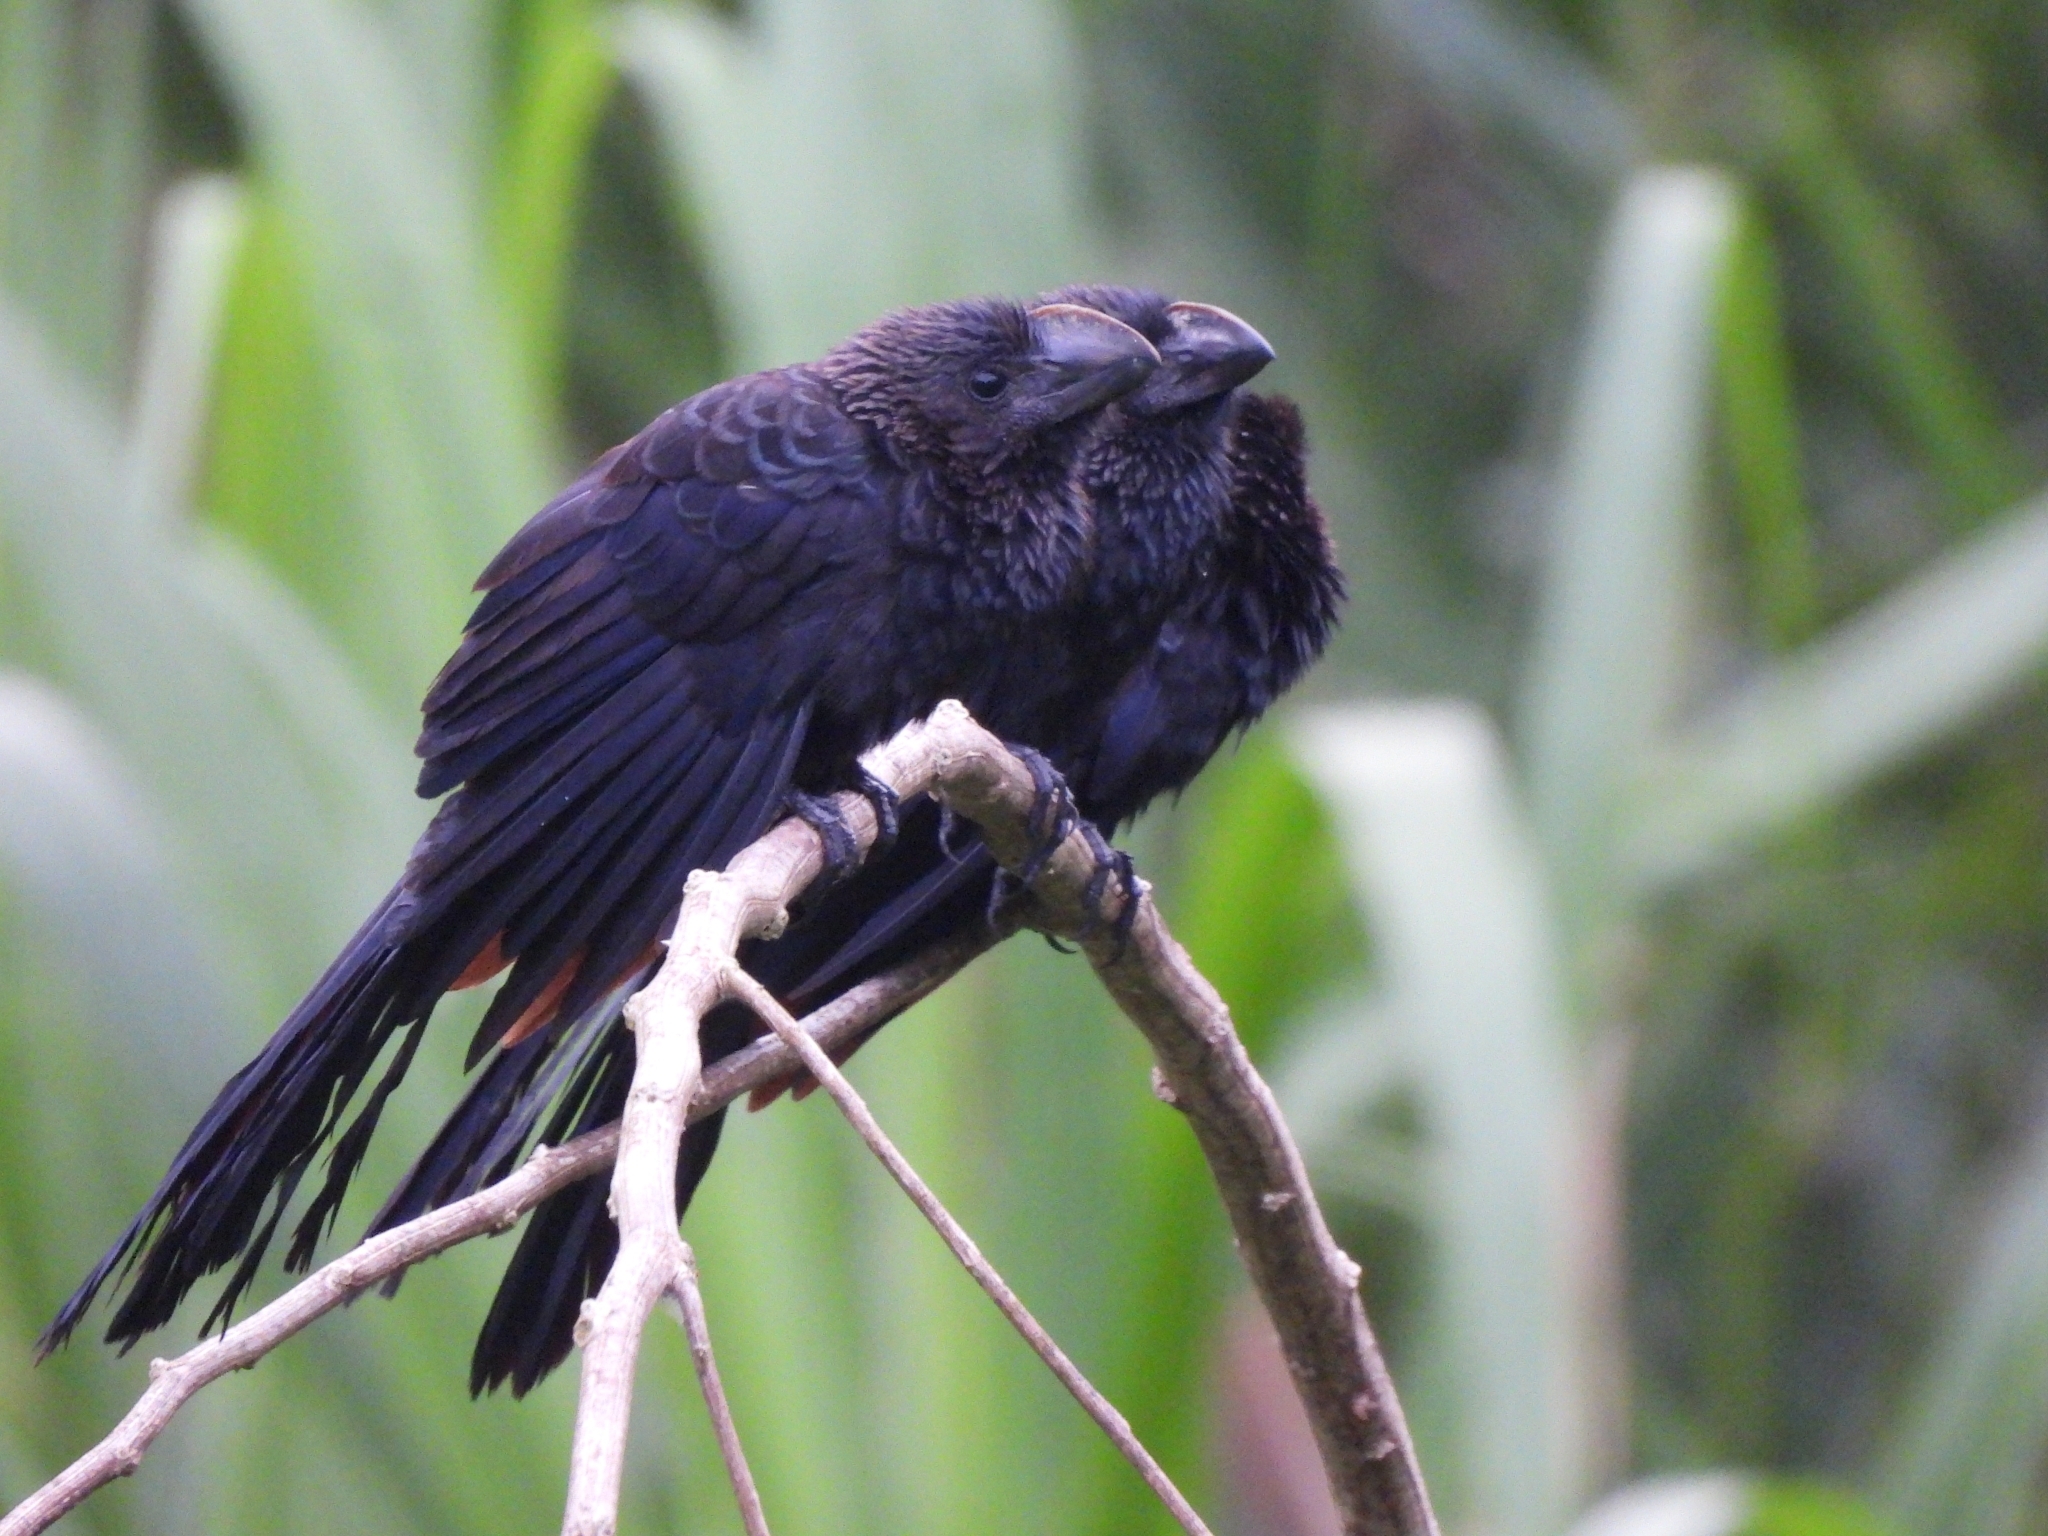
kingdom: Animalia
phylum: Chordata
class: Aves
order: Cuculiformes
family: Cuculidae
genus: Crotophaga
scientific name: Crotophaga ani
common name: Smooth-billed ani
